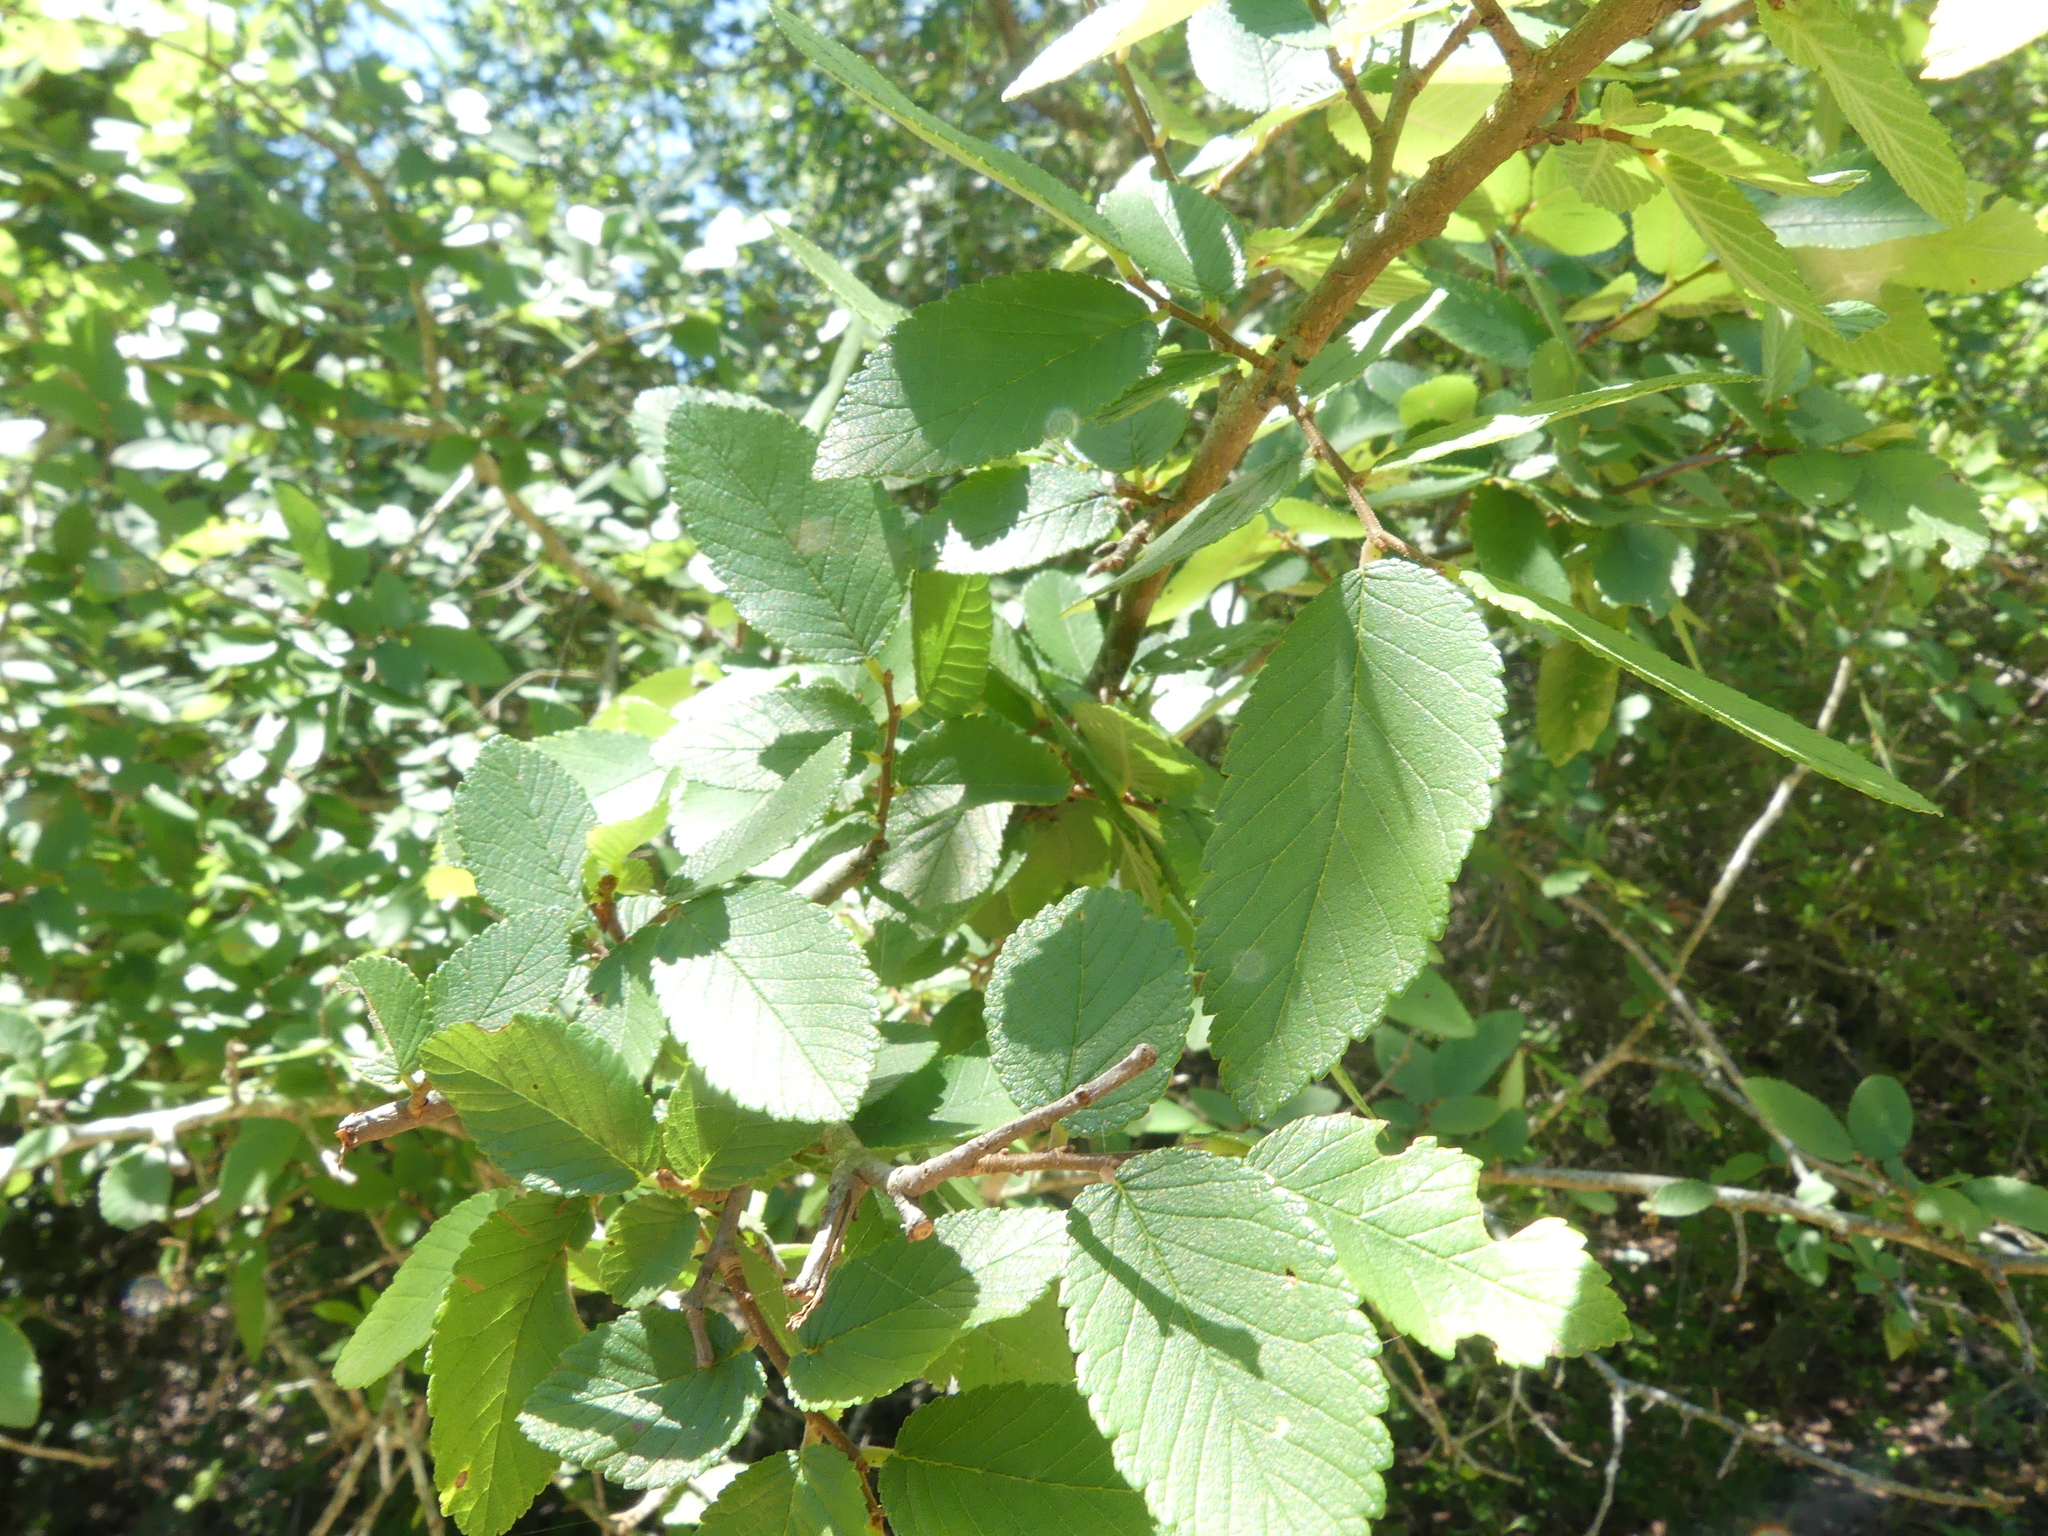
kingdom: Plantae
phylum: Tracheophyta
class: Magnoliopsida
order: Rosales
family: Ulmaceae
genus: Ulmus
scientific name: Ulmus crassifolia
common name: Basket elm
